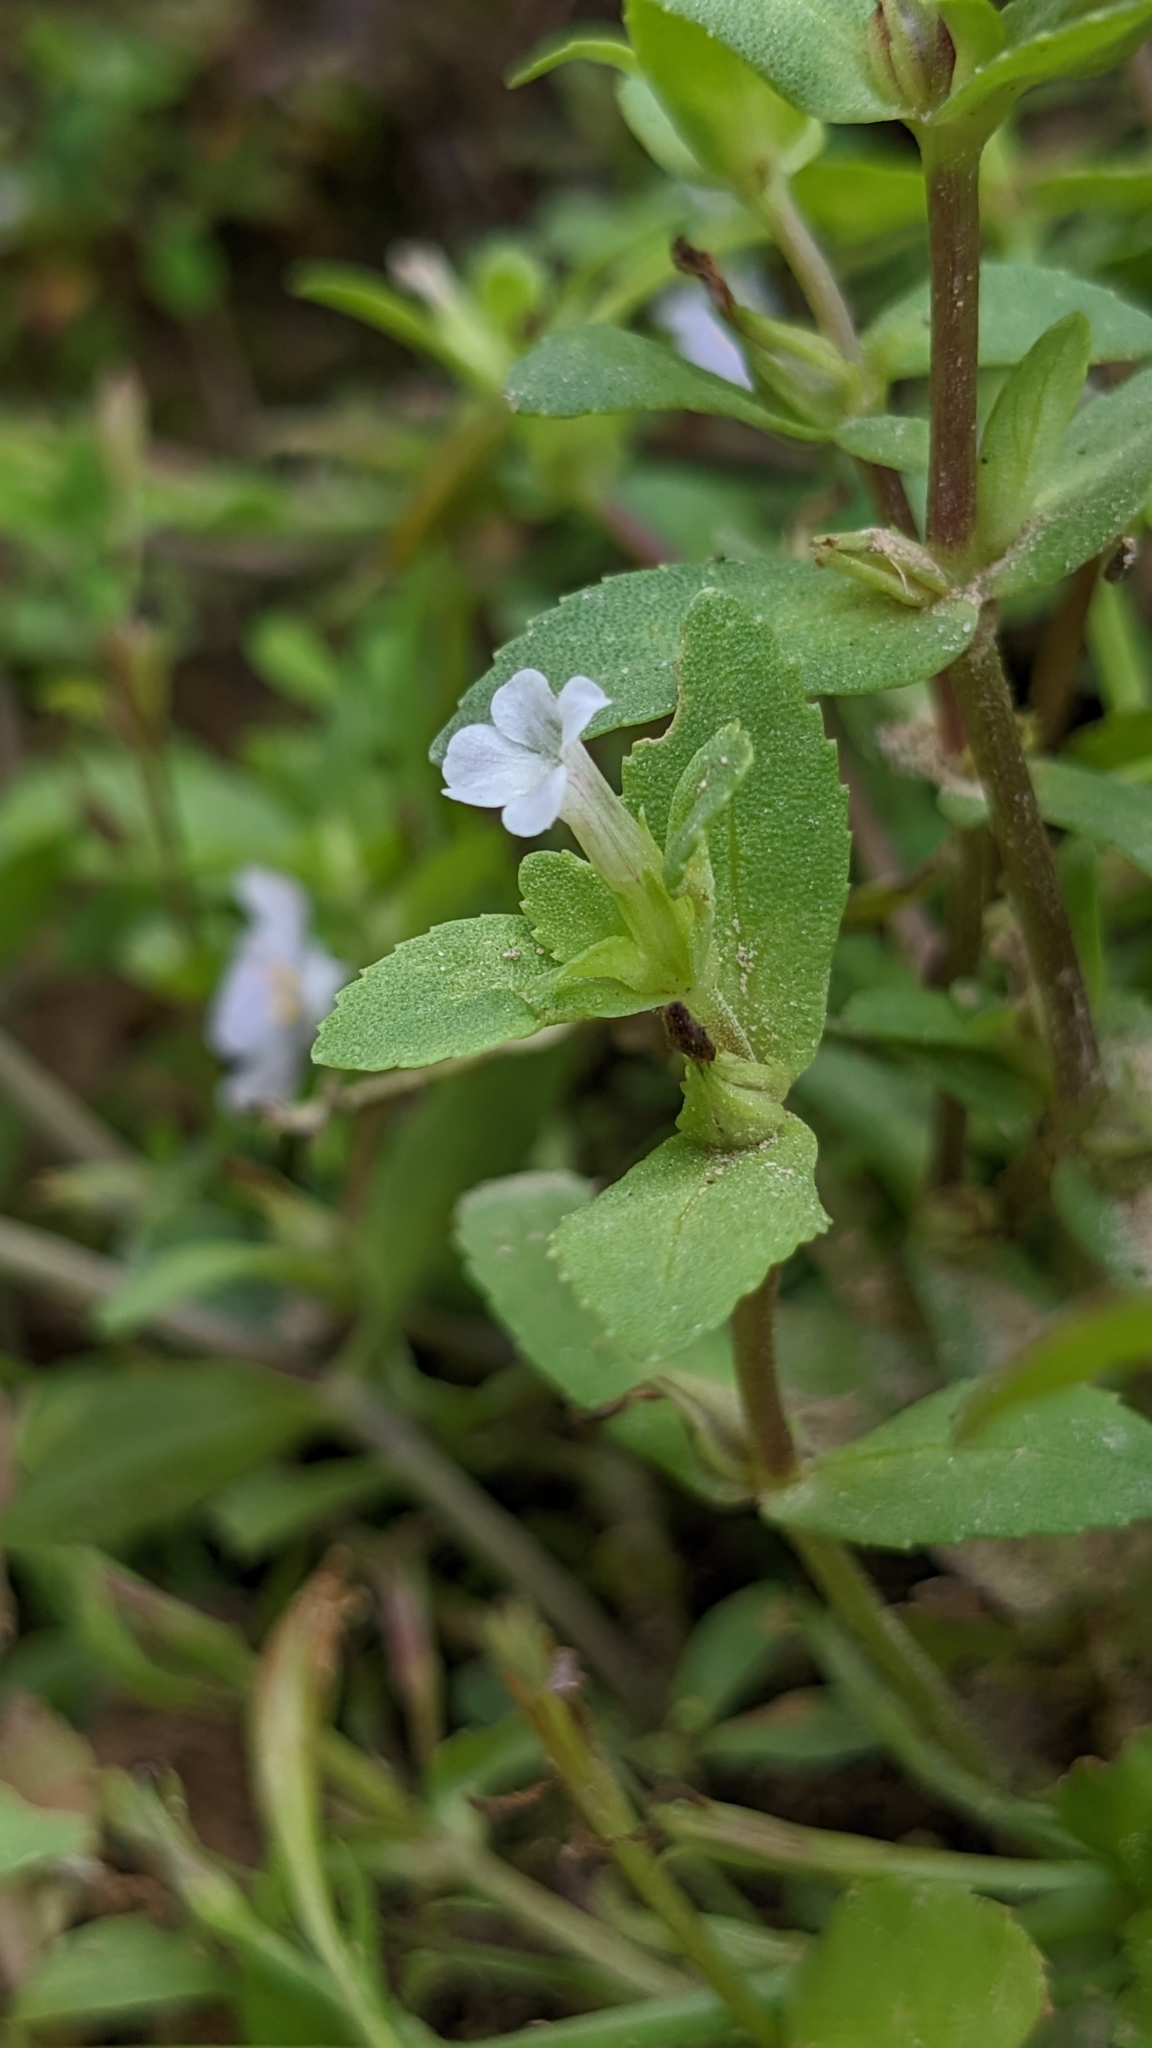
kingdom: Plantae
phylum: Tracheophyta
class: Magnoliopsida
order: Lamiales
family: Plantaginaceae
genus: Limnophila
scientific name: Limnophila fragrans
